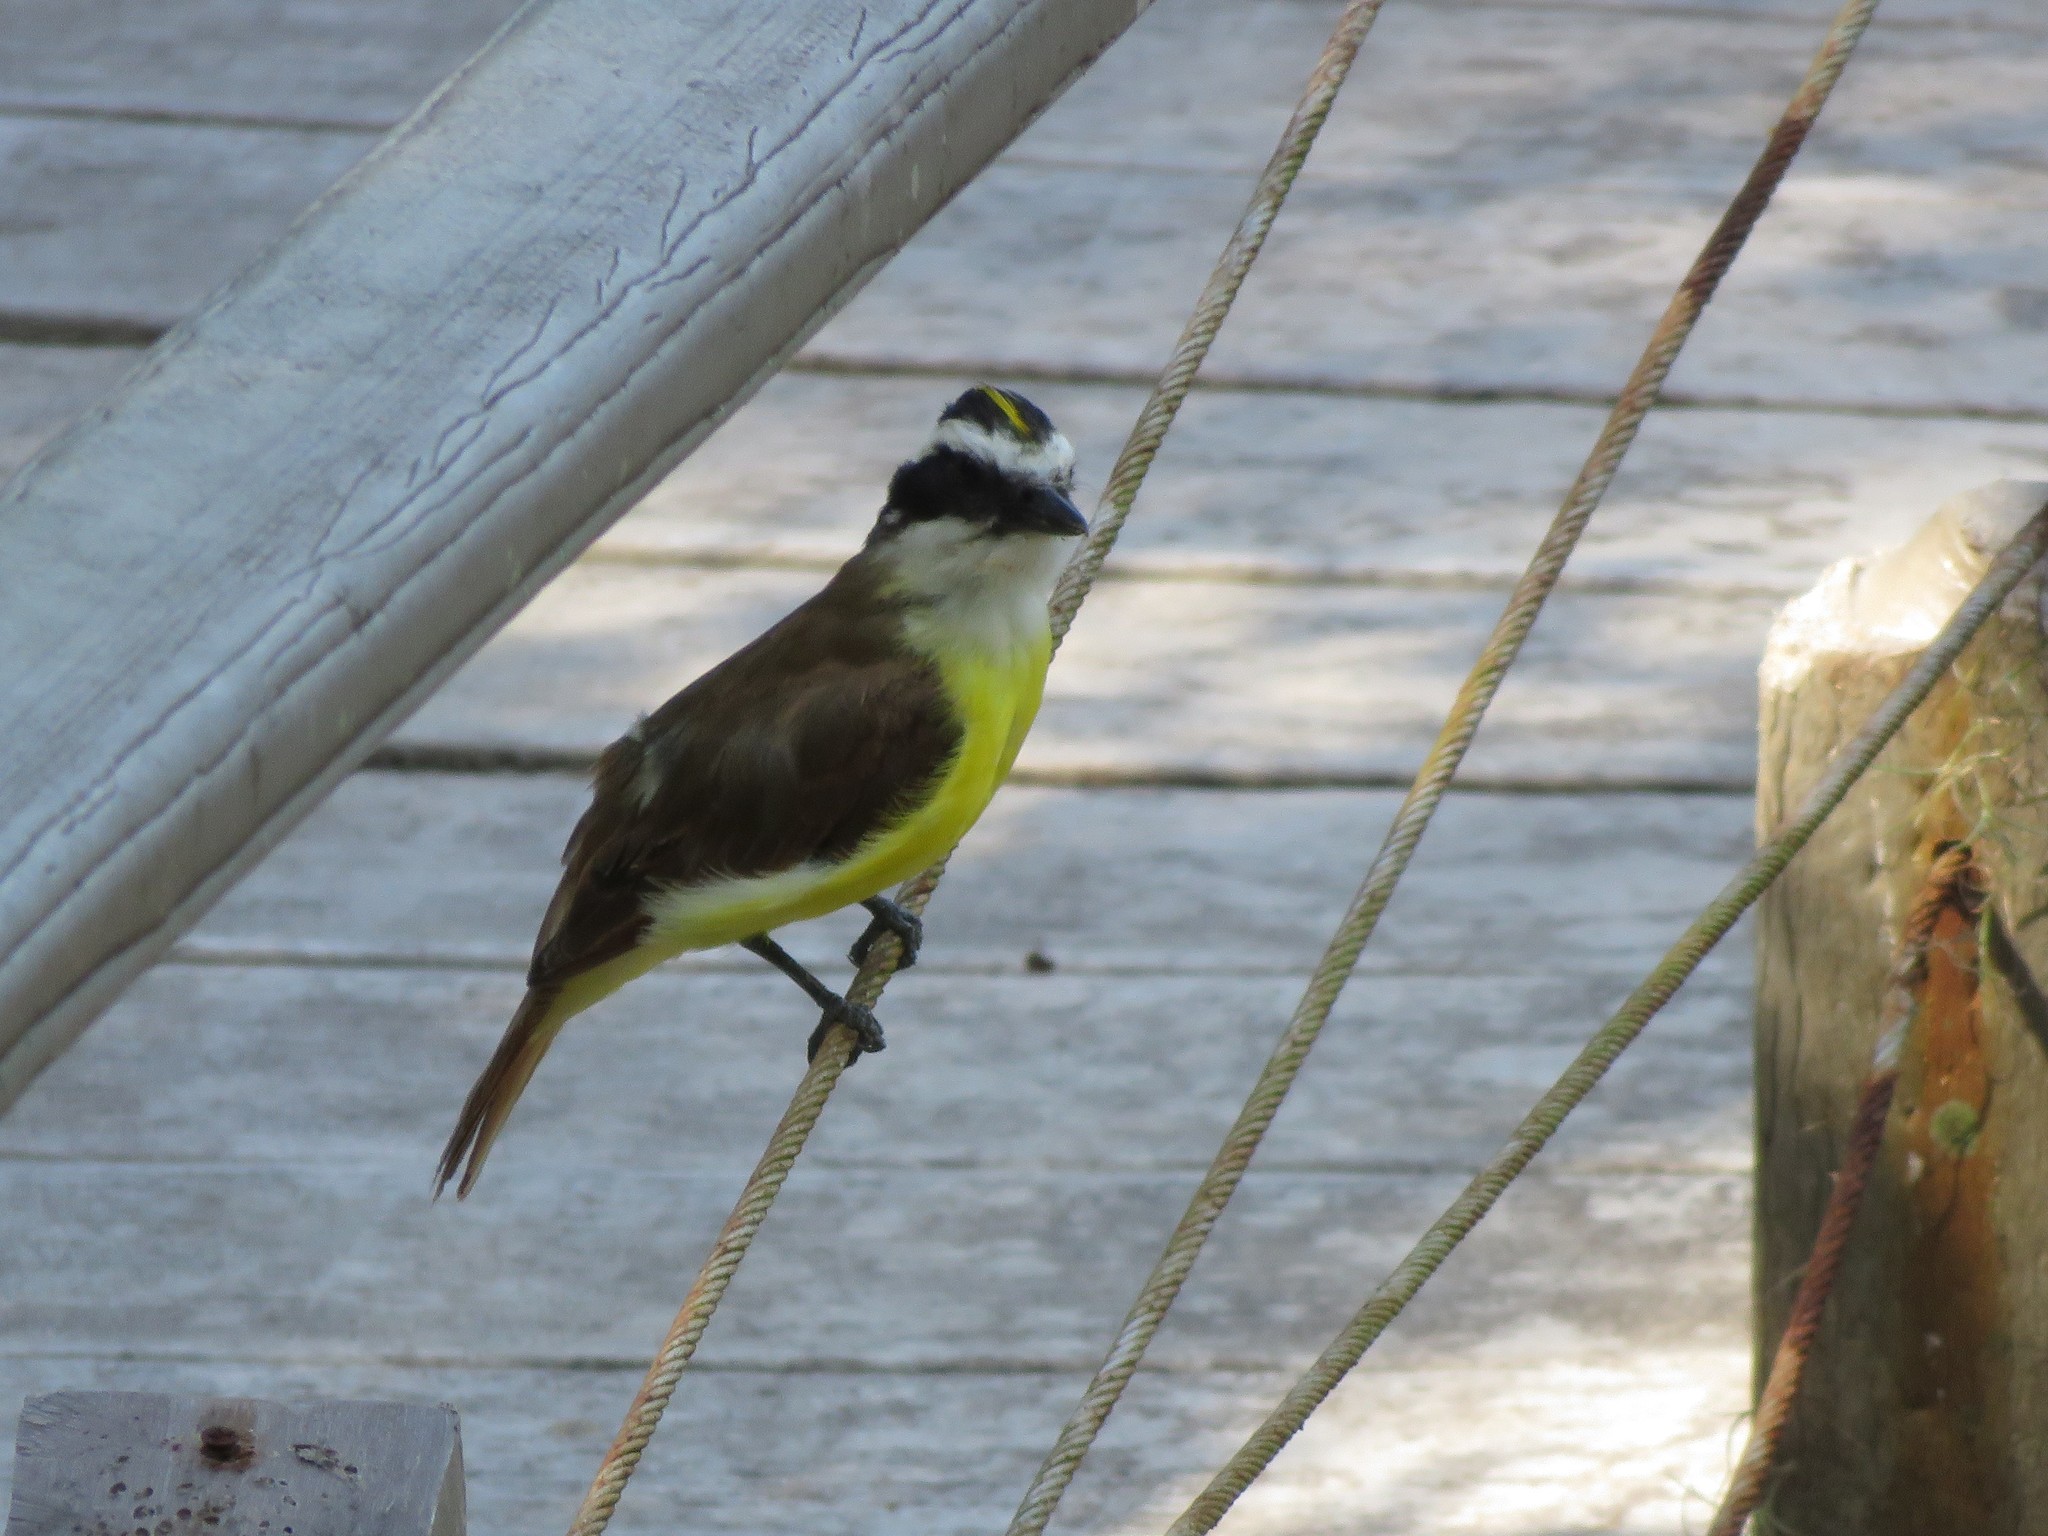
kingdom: Animalia
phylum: Chordata
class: Aves
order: Passeriformes
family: Tyrannidae
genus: Pitangus
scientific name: Pitangus sulphuratus
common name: Great kiskadee
